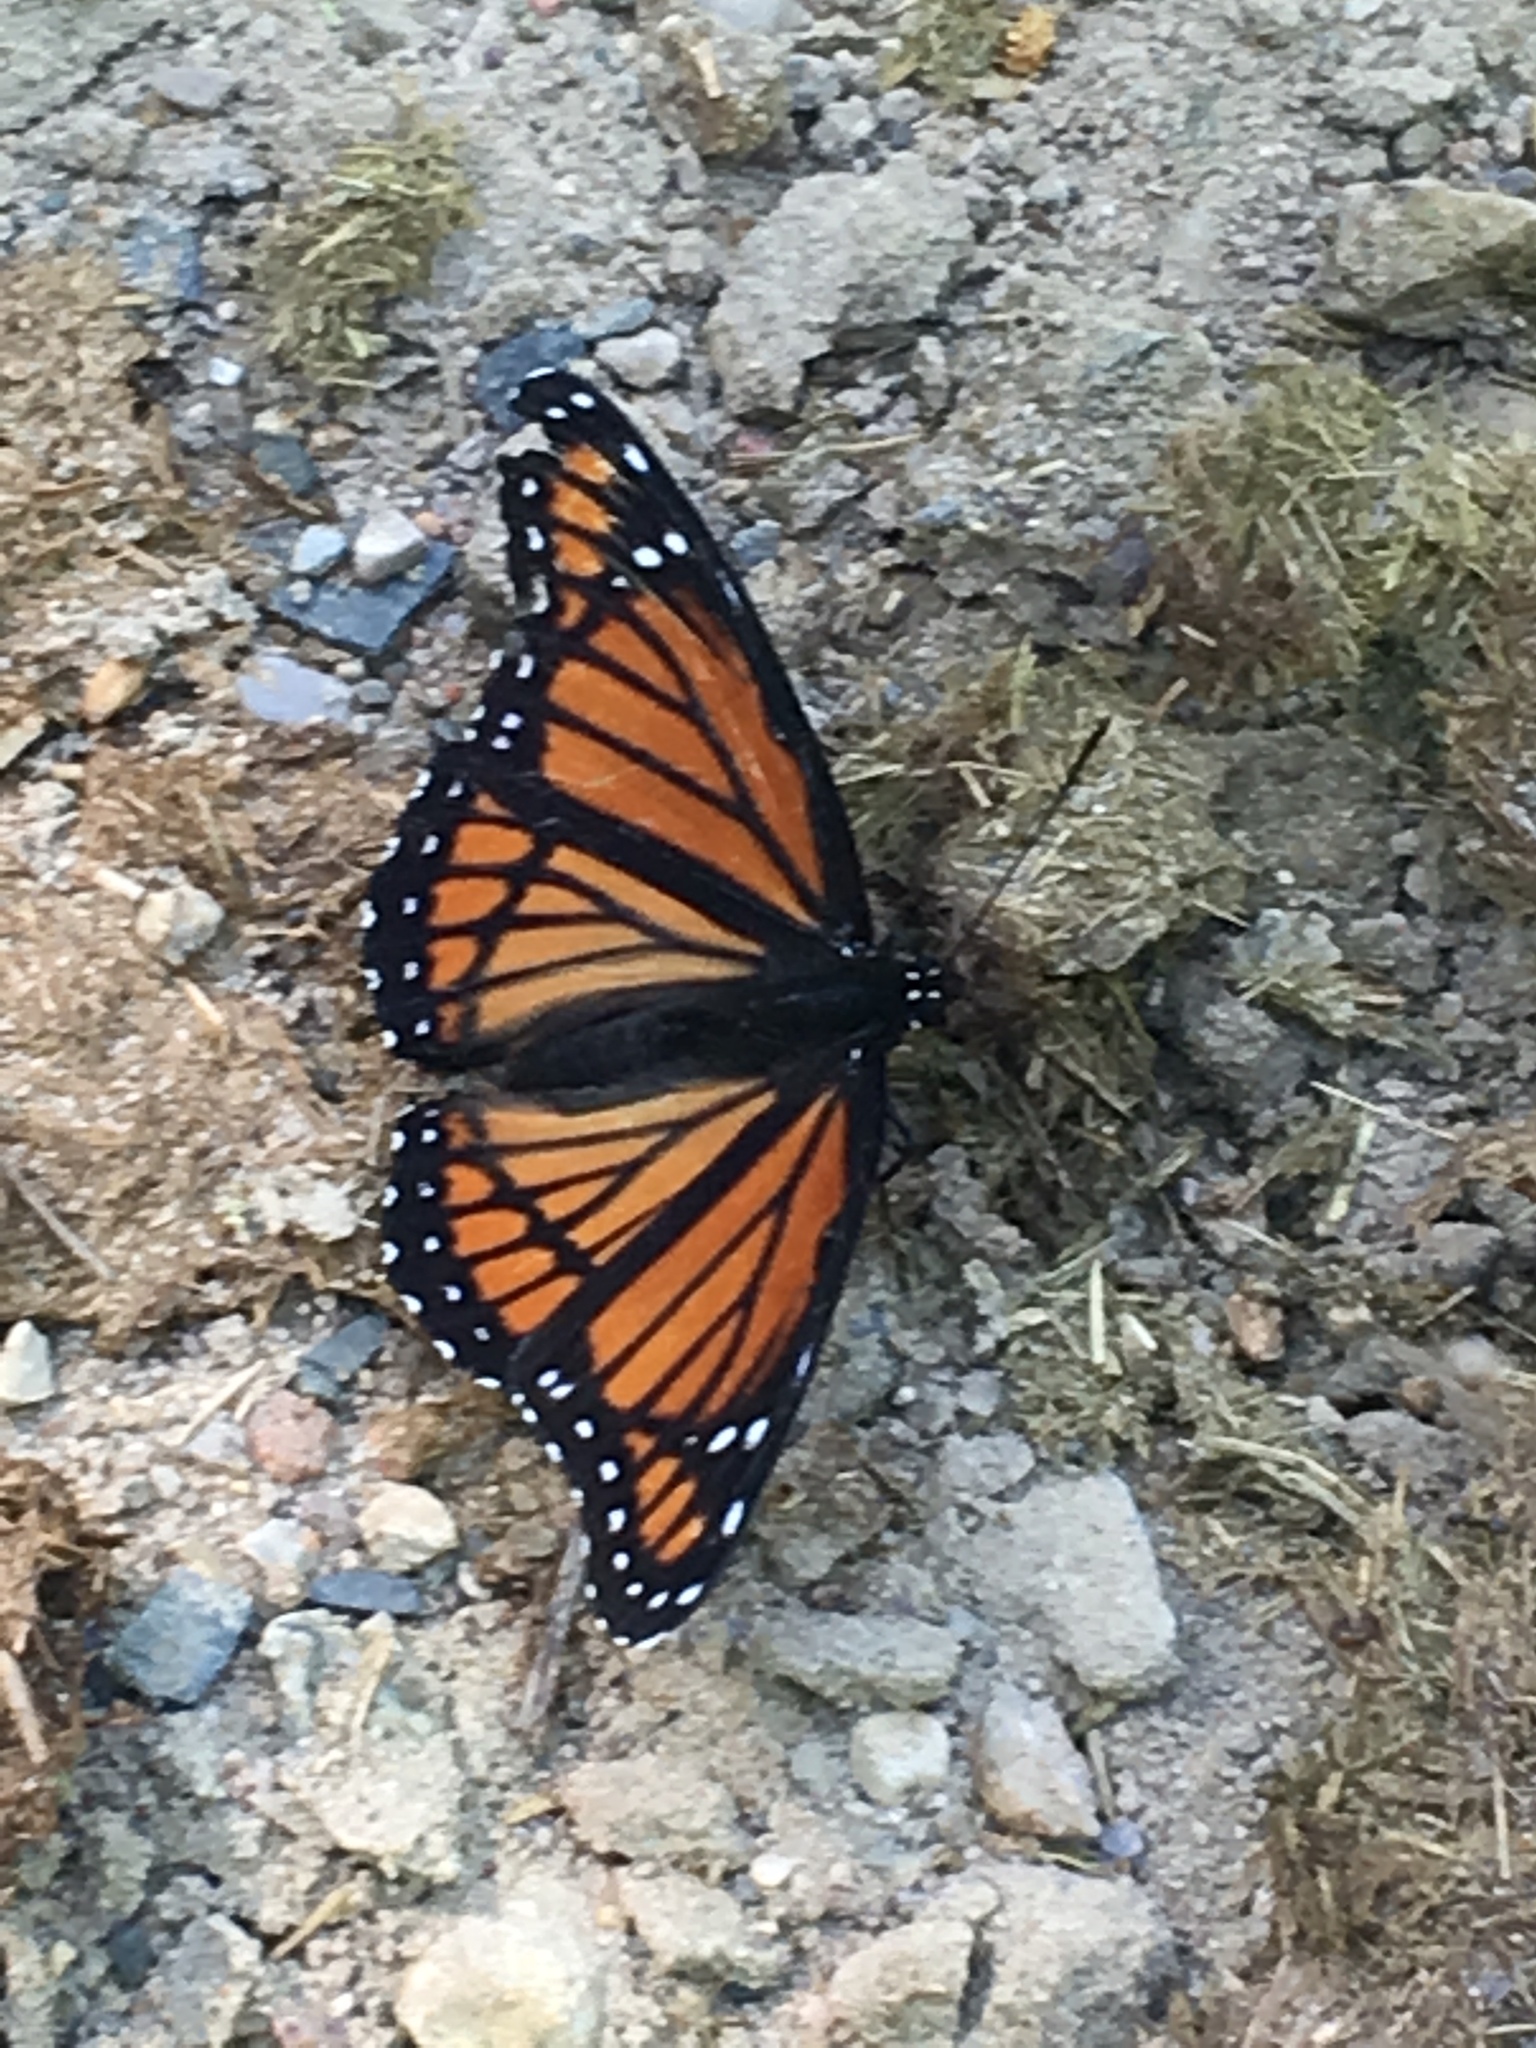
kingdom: Animalia
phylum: Arthropoda
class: Insecta
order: Lepidoptera
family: Nymphalidae
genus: Limenitis
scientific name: Limenitis archippus
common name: Viceroy
